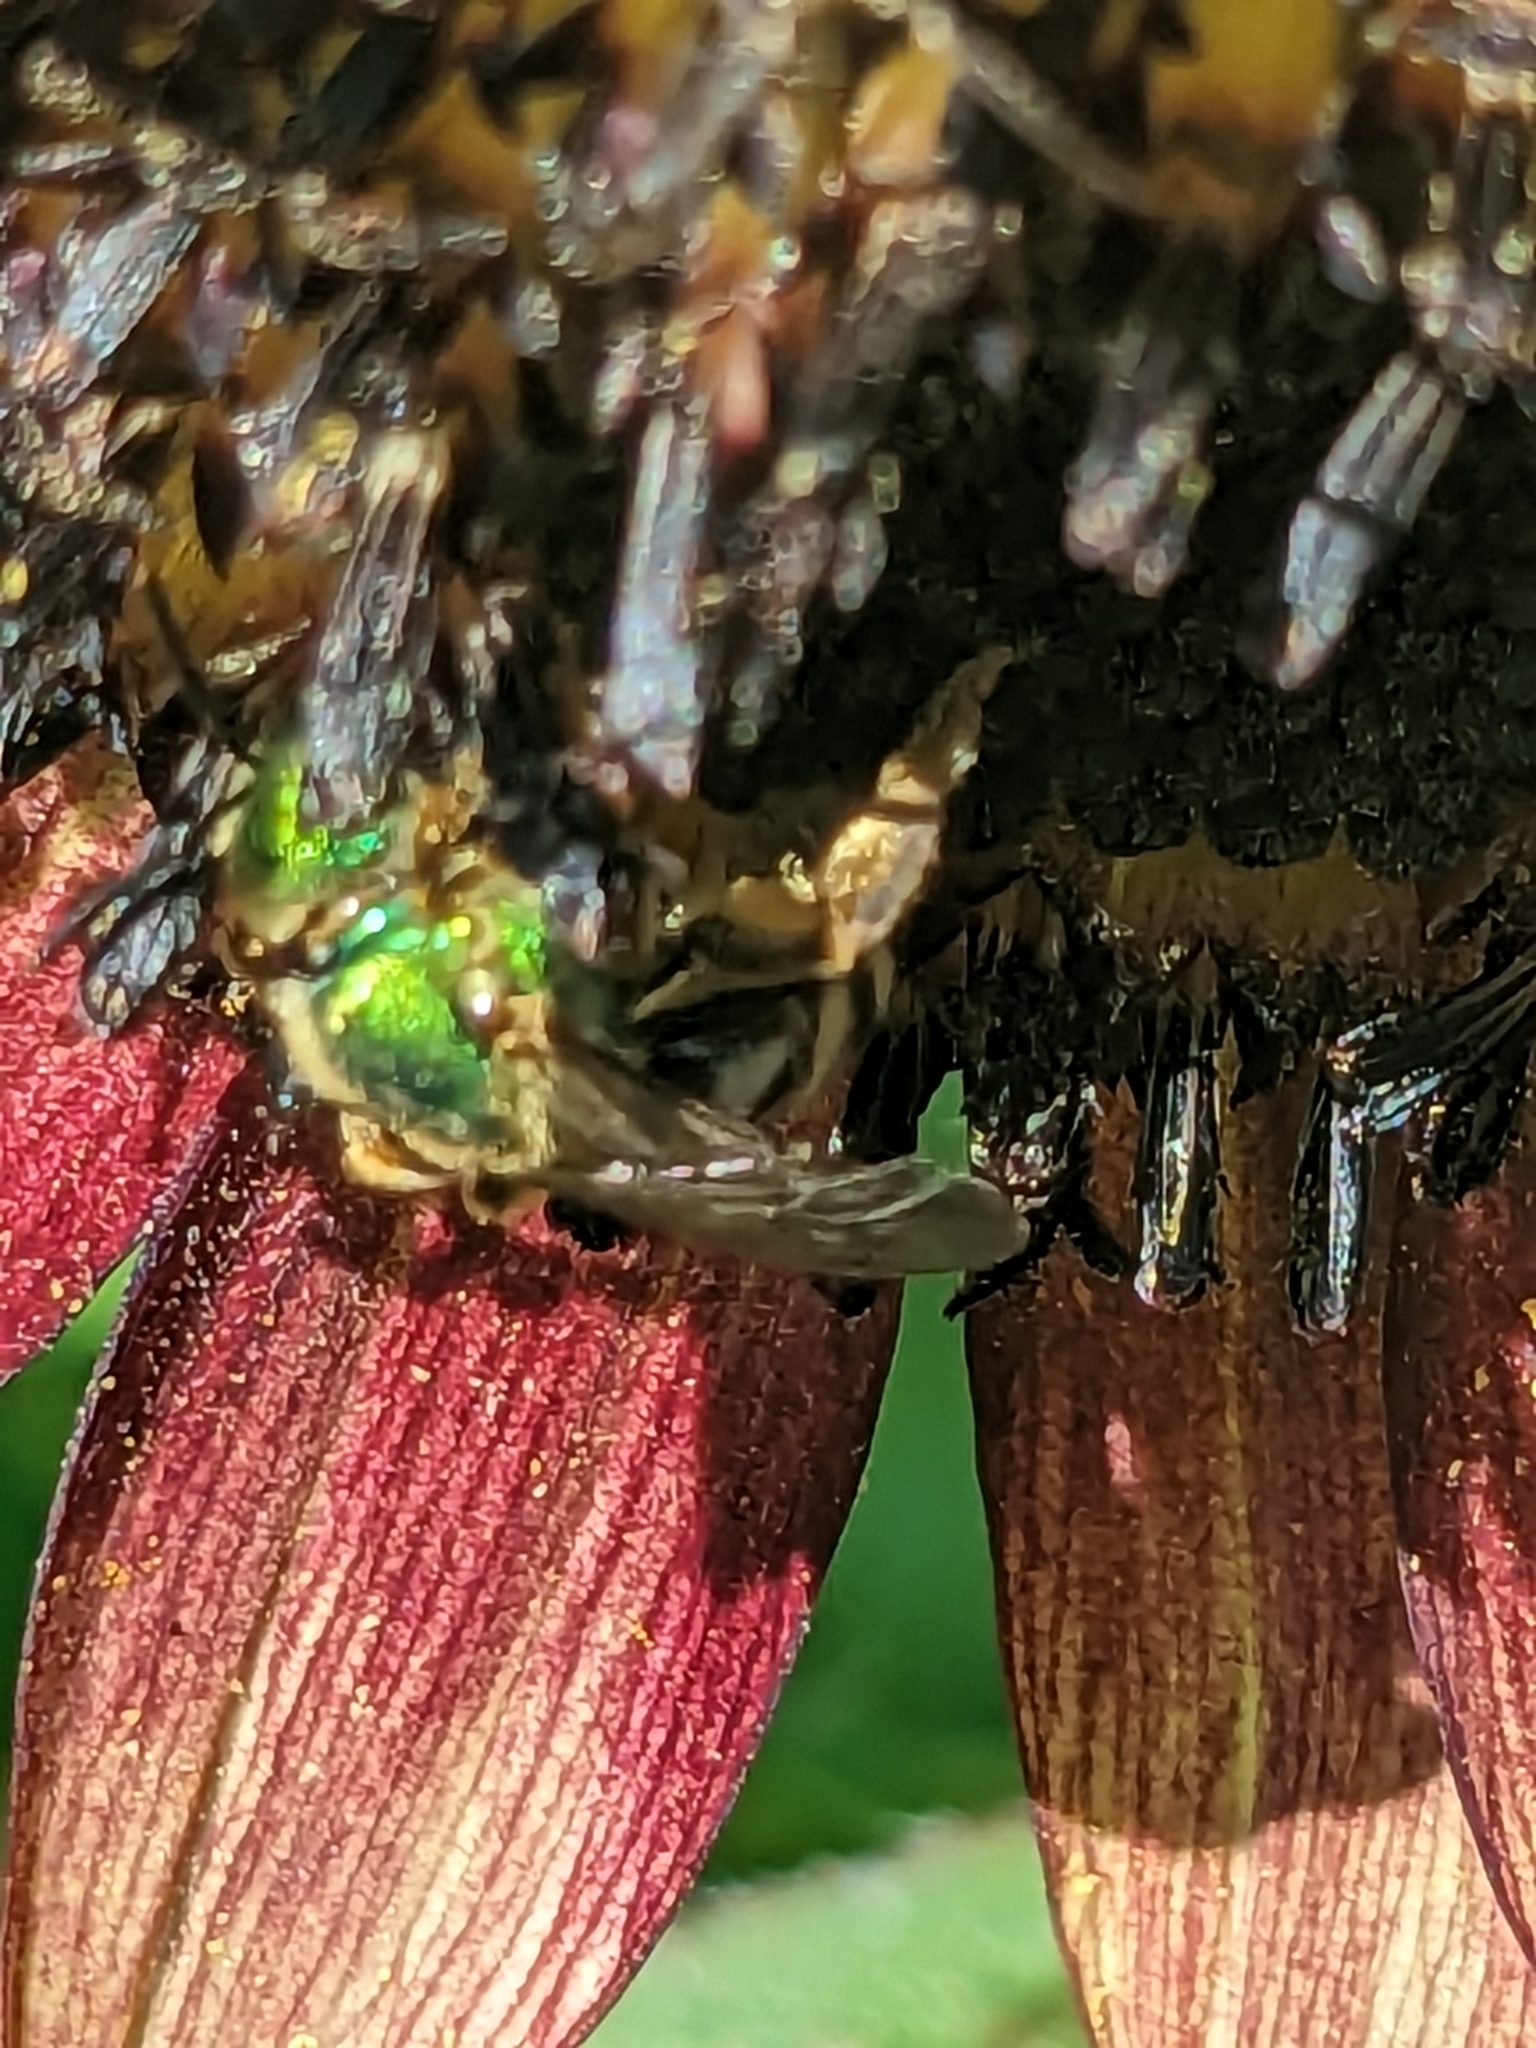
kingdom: Animalia
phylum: Arthropoda
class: Insecta
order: Hymenoptera
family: Halictidae
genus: Agapostemon
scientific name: Agapostemon virescens
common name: Bicolored striped sweat bee
